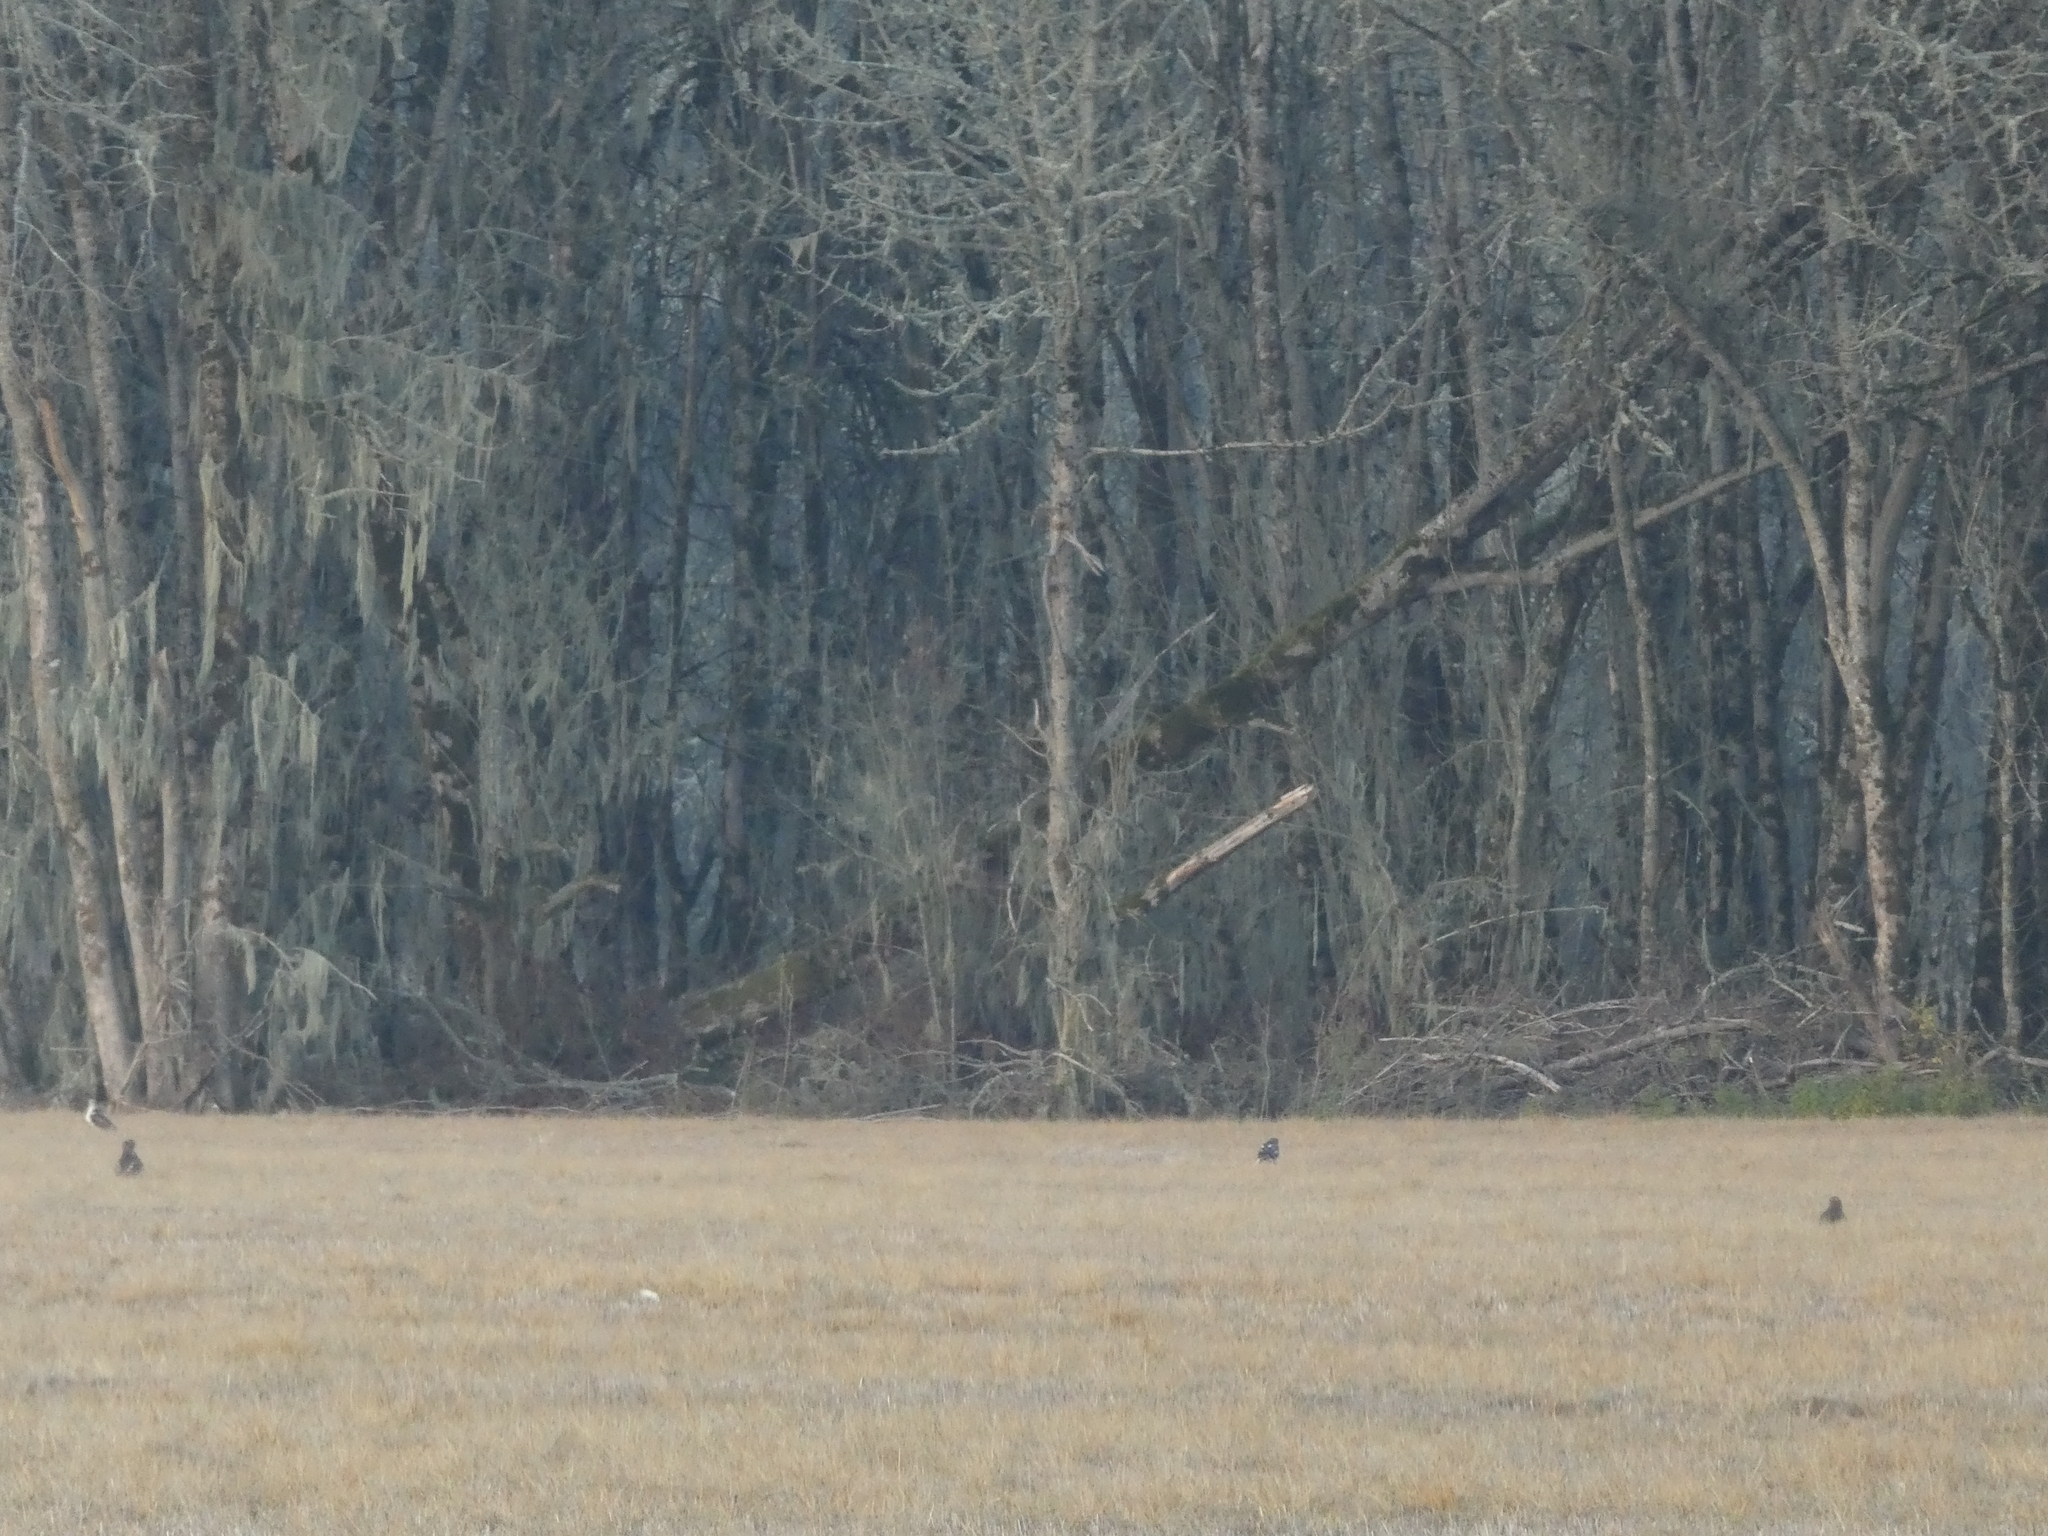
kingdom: Animalia
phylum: Chordata
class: Aves
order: Accipitriformes
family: Accipitridae
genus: Buteo
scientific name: Buteo regalis
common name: Ferruginous hawk
